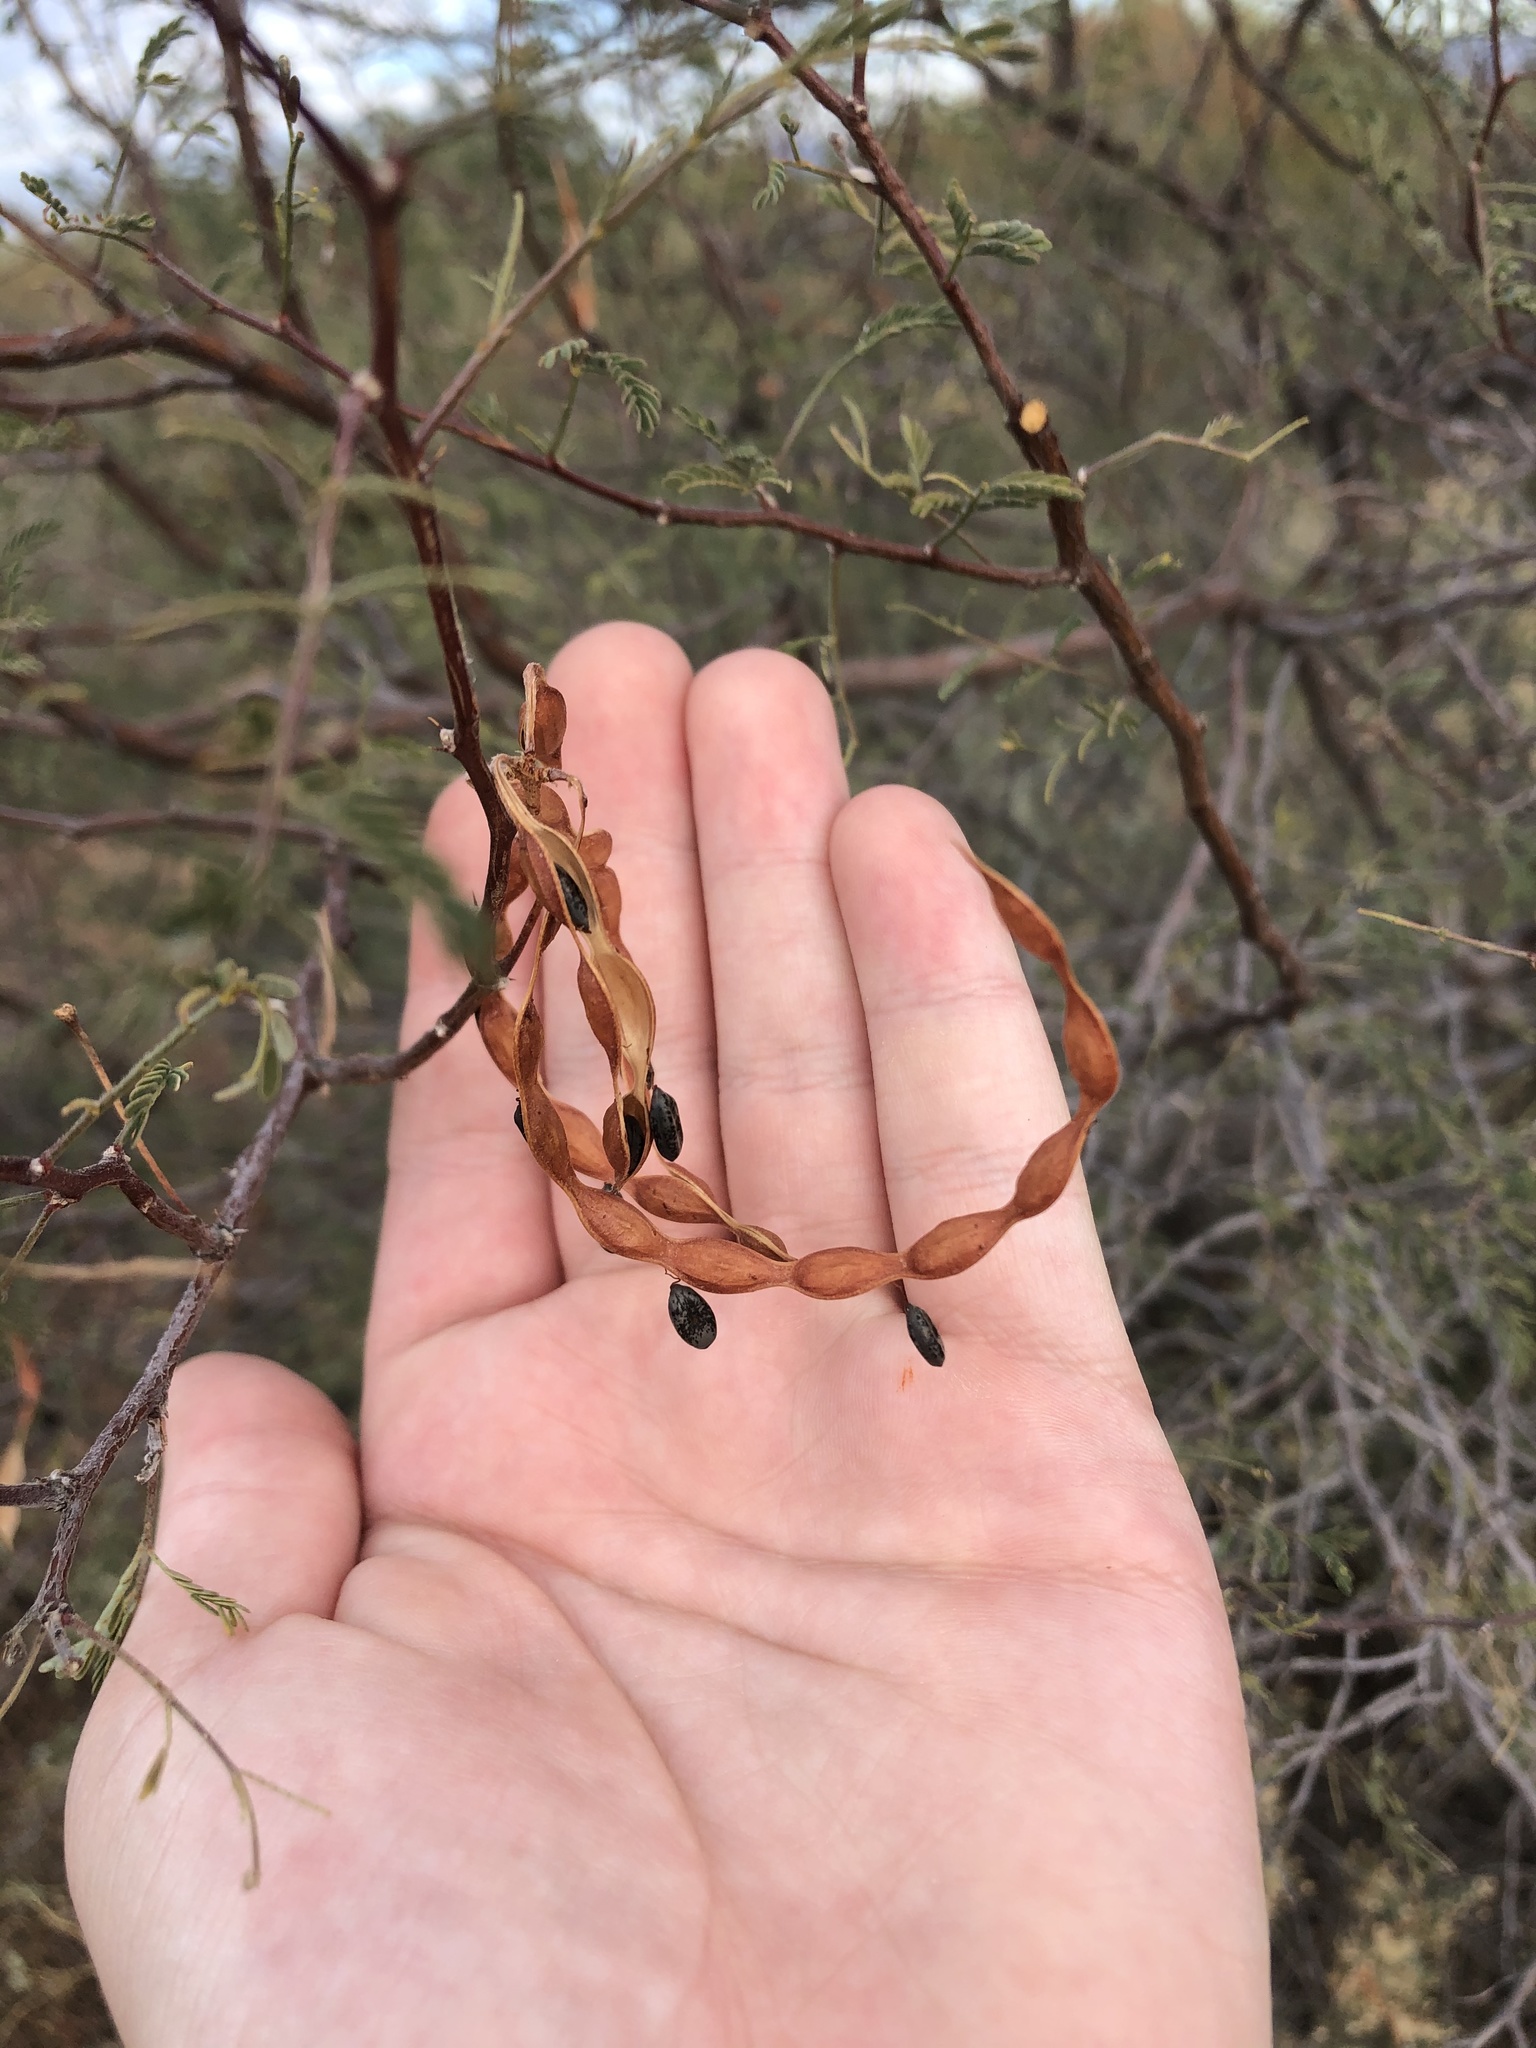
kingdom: Plantae
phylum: Tracheophyta
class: Magnoliopsida
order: Fabales
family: Fabaceae
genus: Vachellia
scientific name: Vachellia constricta
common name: Mescat acacia
